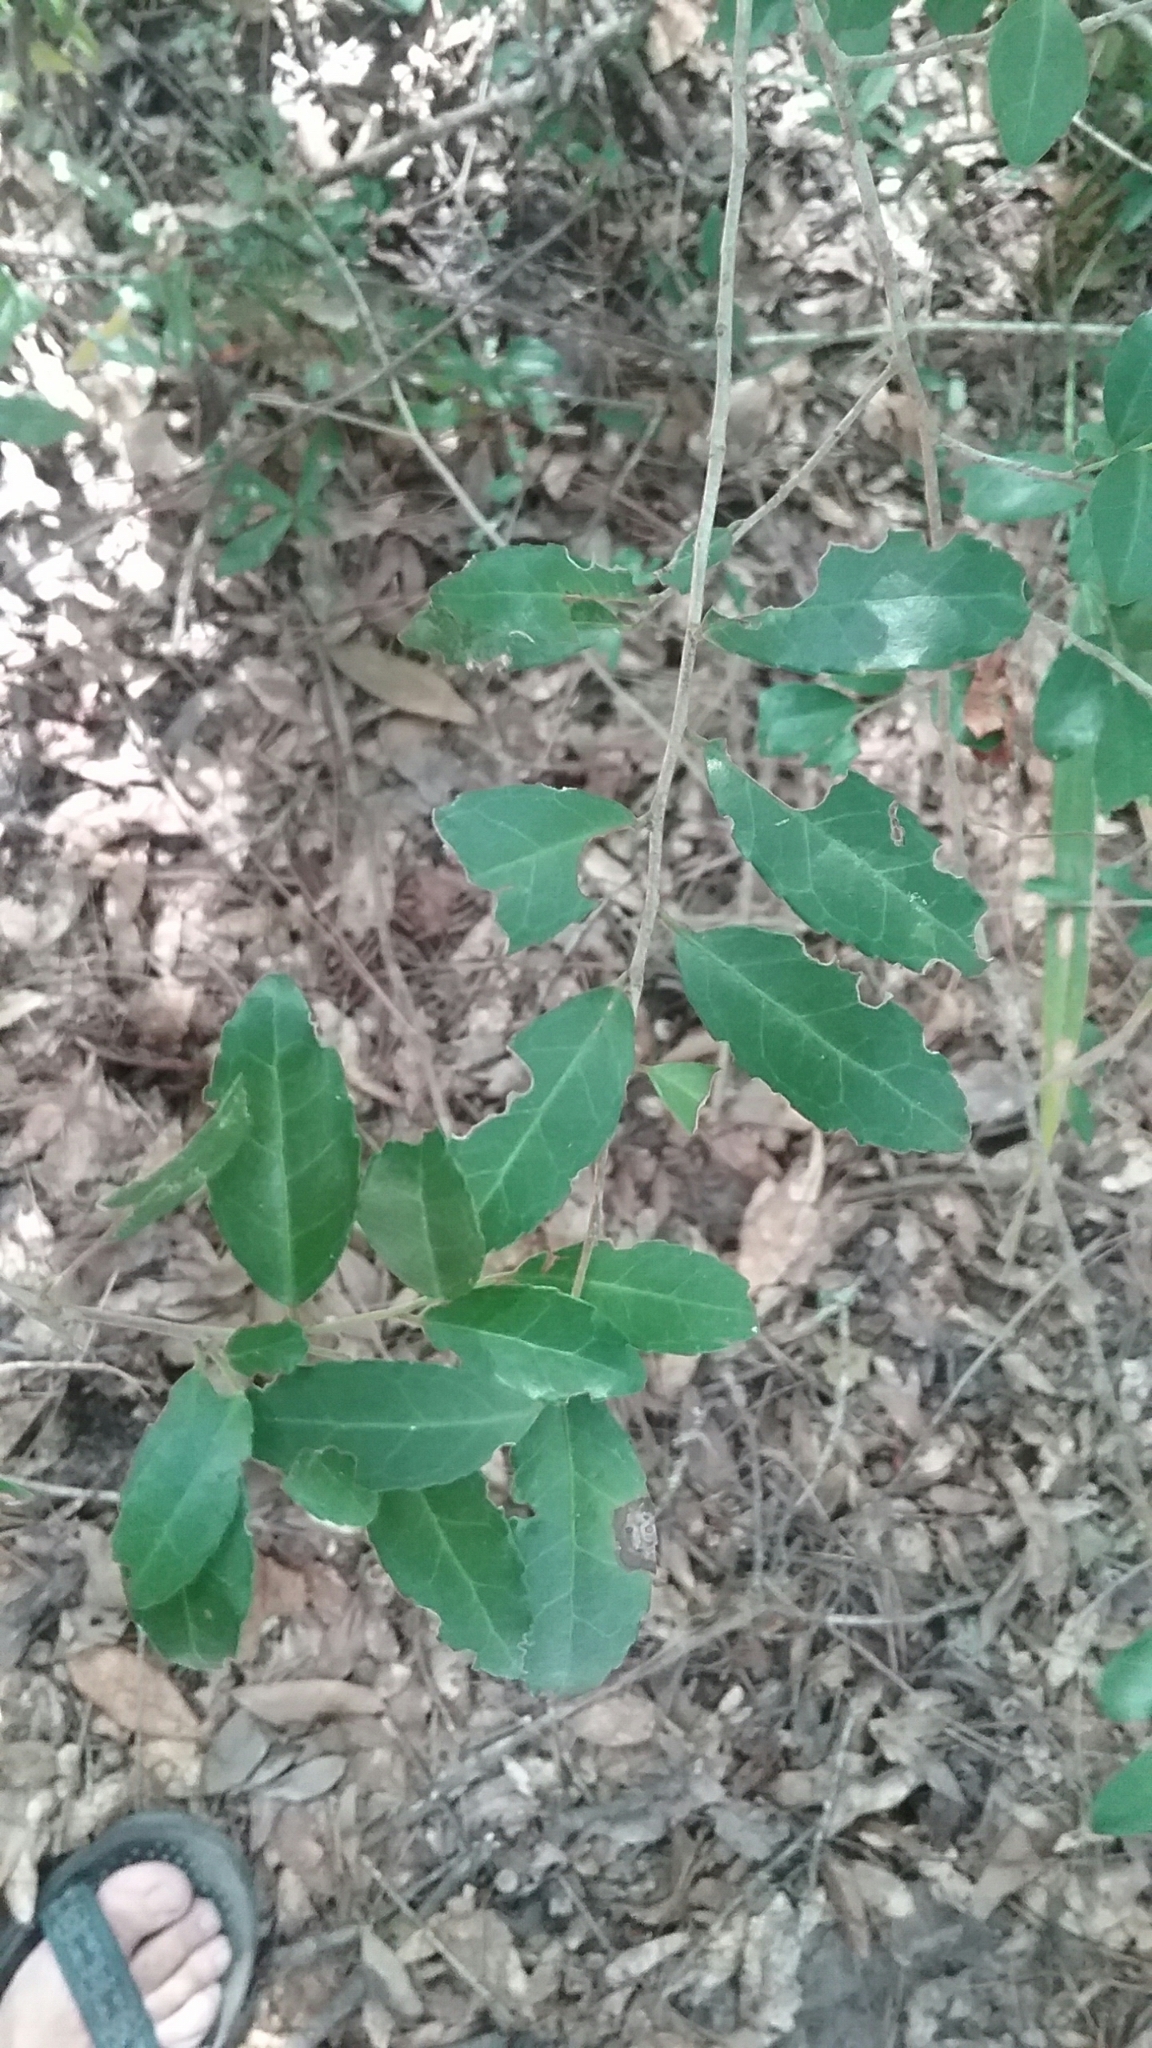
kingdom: Plantae
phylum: Tracheophyta
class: Magnoliopsida
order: Aquifoliales
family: Aquifoliaceae
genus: Ilex
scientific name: Ilex vomitoria
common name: Yaupon holly
